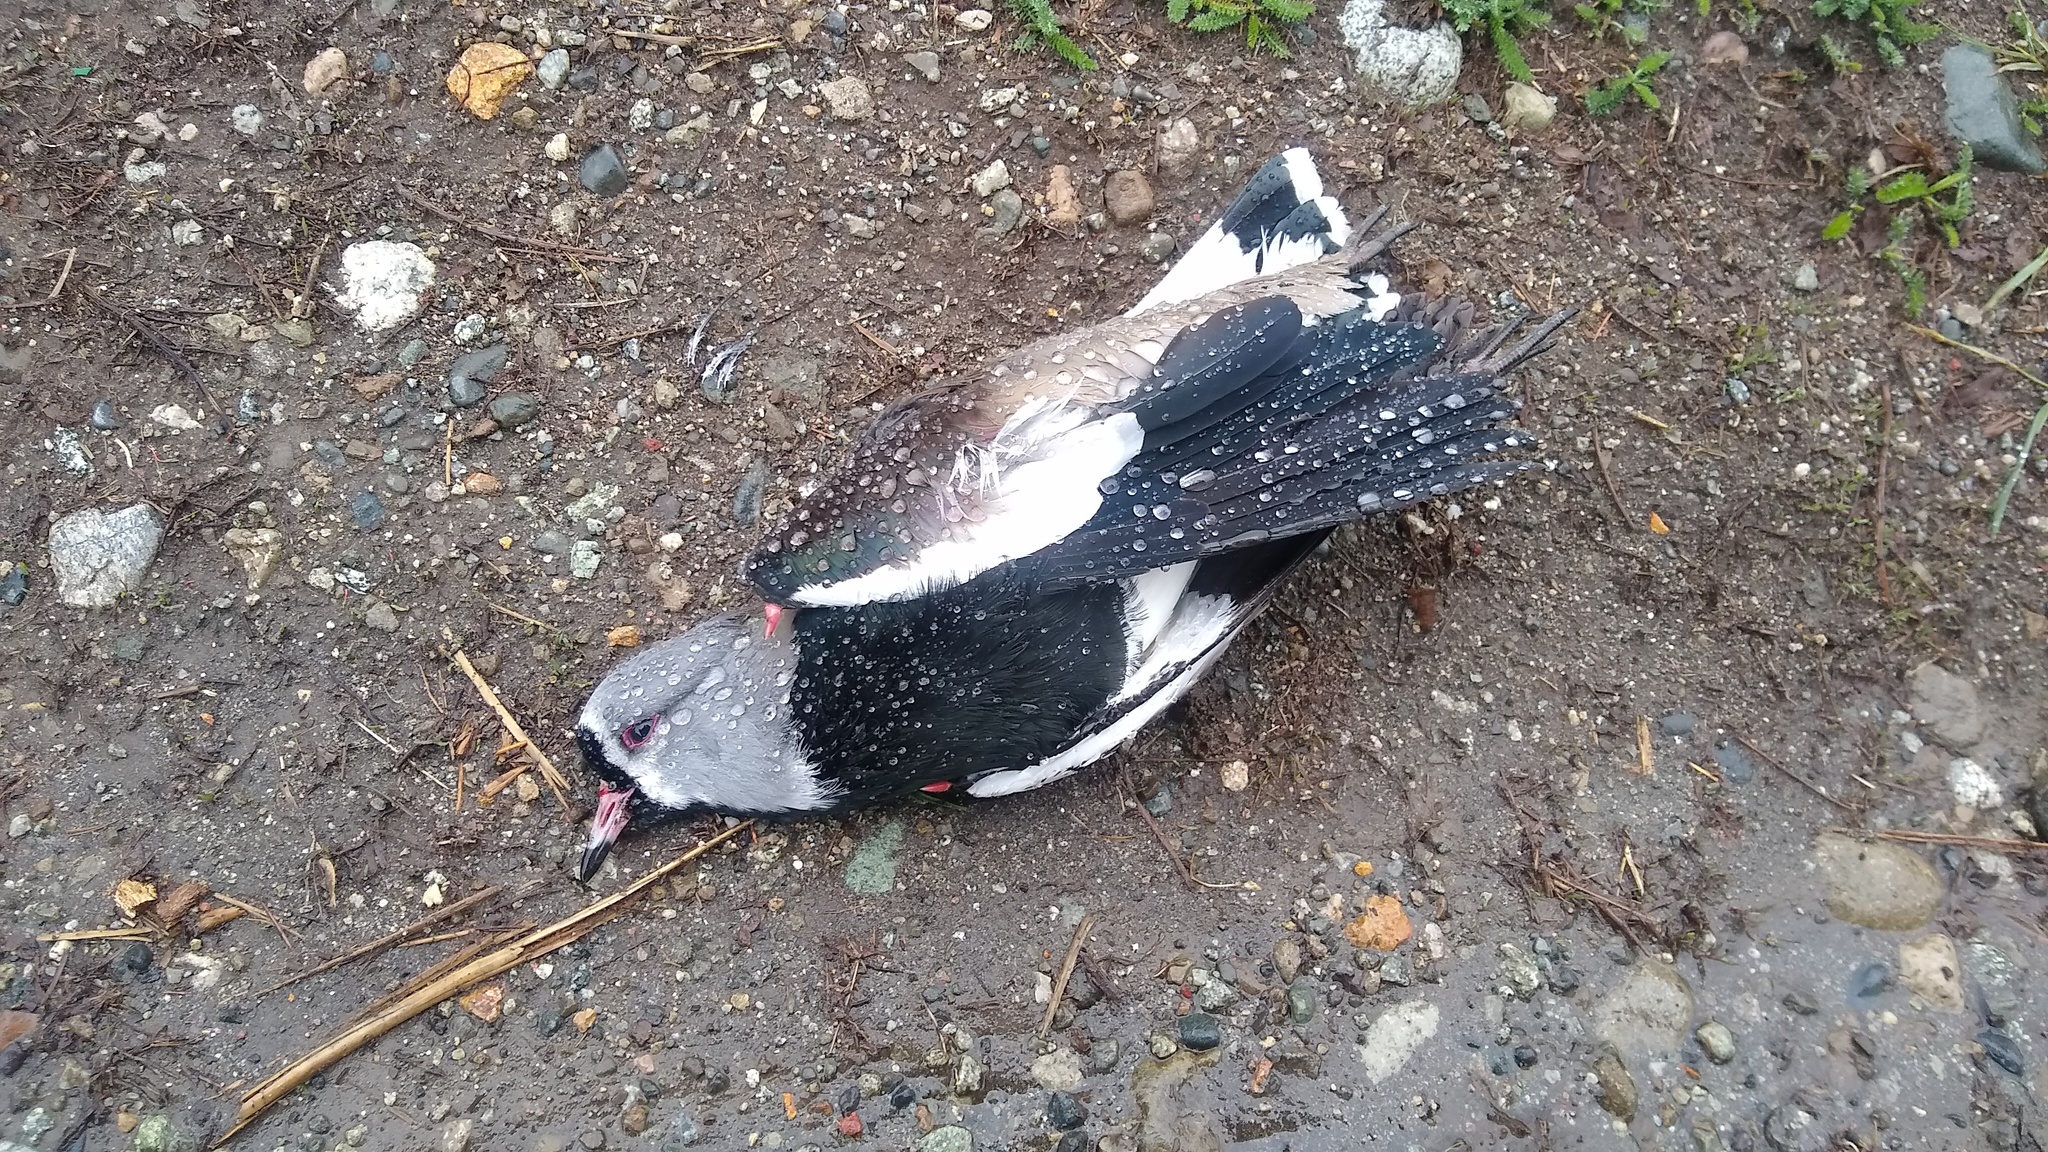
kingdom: Animalia
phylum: Chordata
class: Aves
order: Charadriiformes
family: Charadriidae
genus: Vanellus
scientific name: Vanellus chilensis
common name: Southern lapwing
